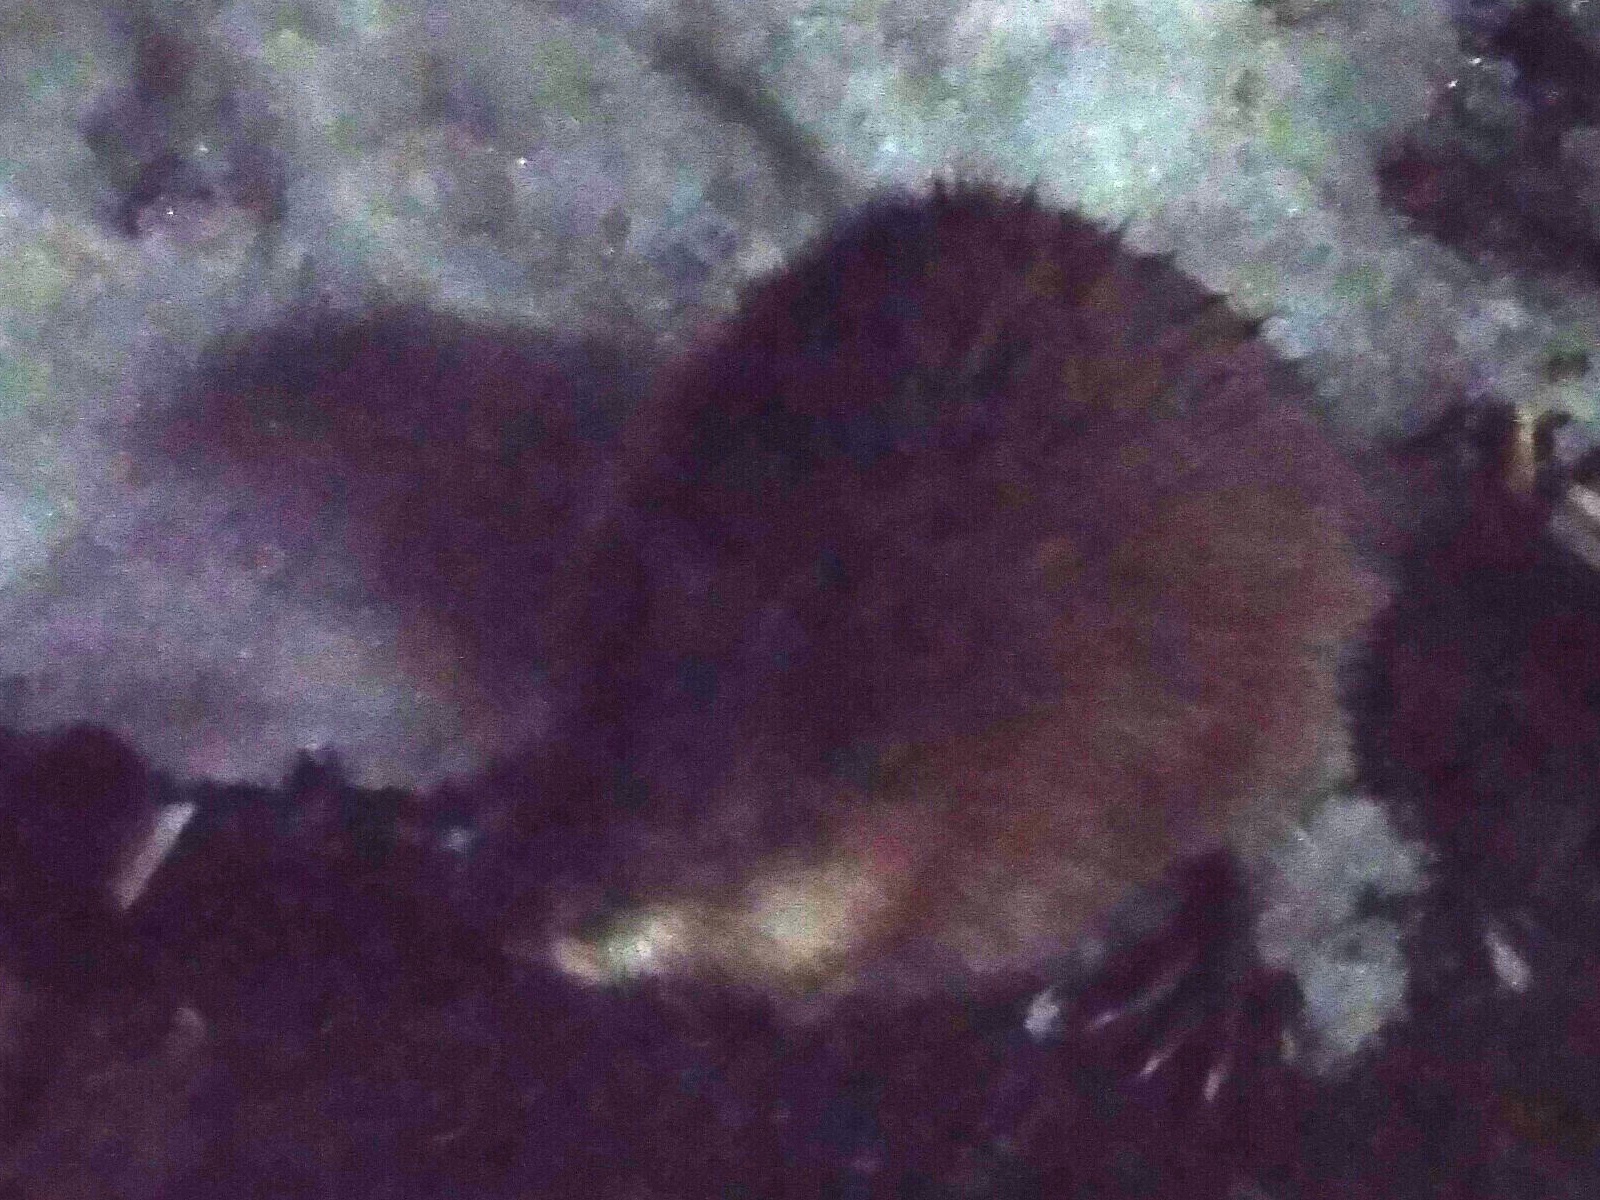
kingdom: Animalia
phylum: Chordata
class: Mammalia
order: Rodentia
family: Cricetidae
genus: Ondatra
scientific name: Ondatra zibethicus
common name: Muskrat
